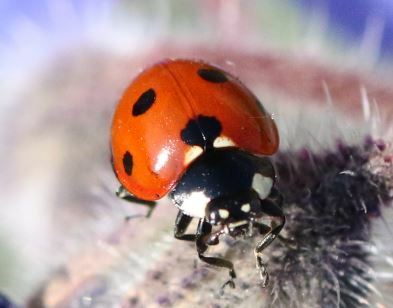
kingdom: Animalia
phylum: Arthropoda
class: Insecta
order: Coleoptera
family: Coccinellidae
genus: Coccinella
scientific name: Coccinella septempunctata
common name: Sevenspotted lady beetle
